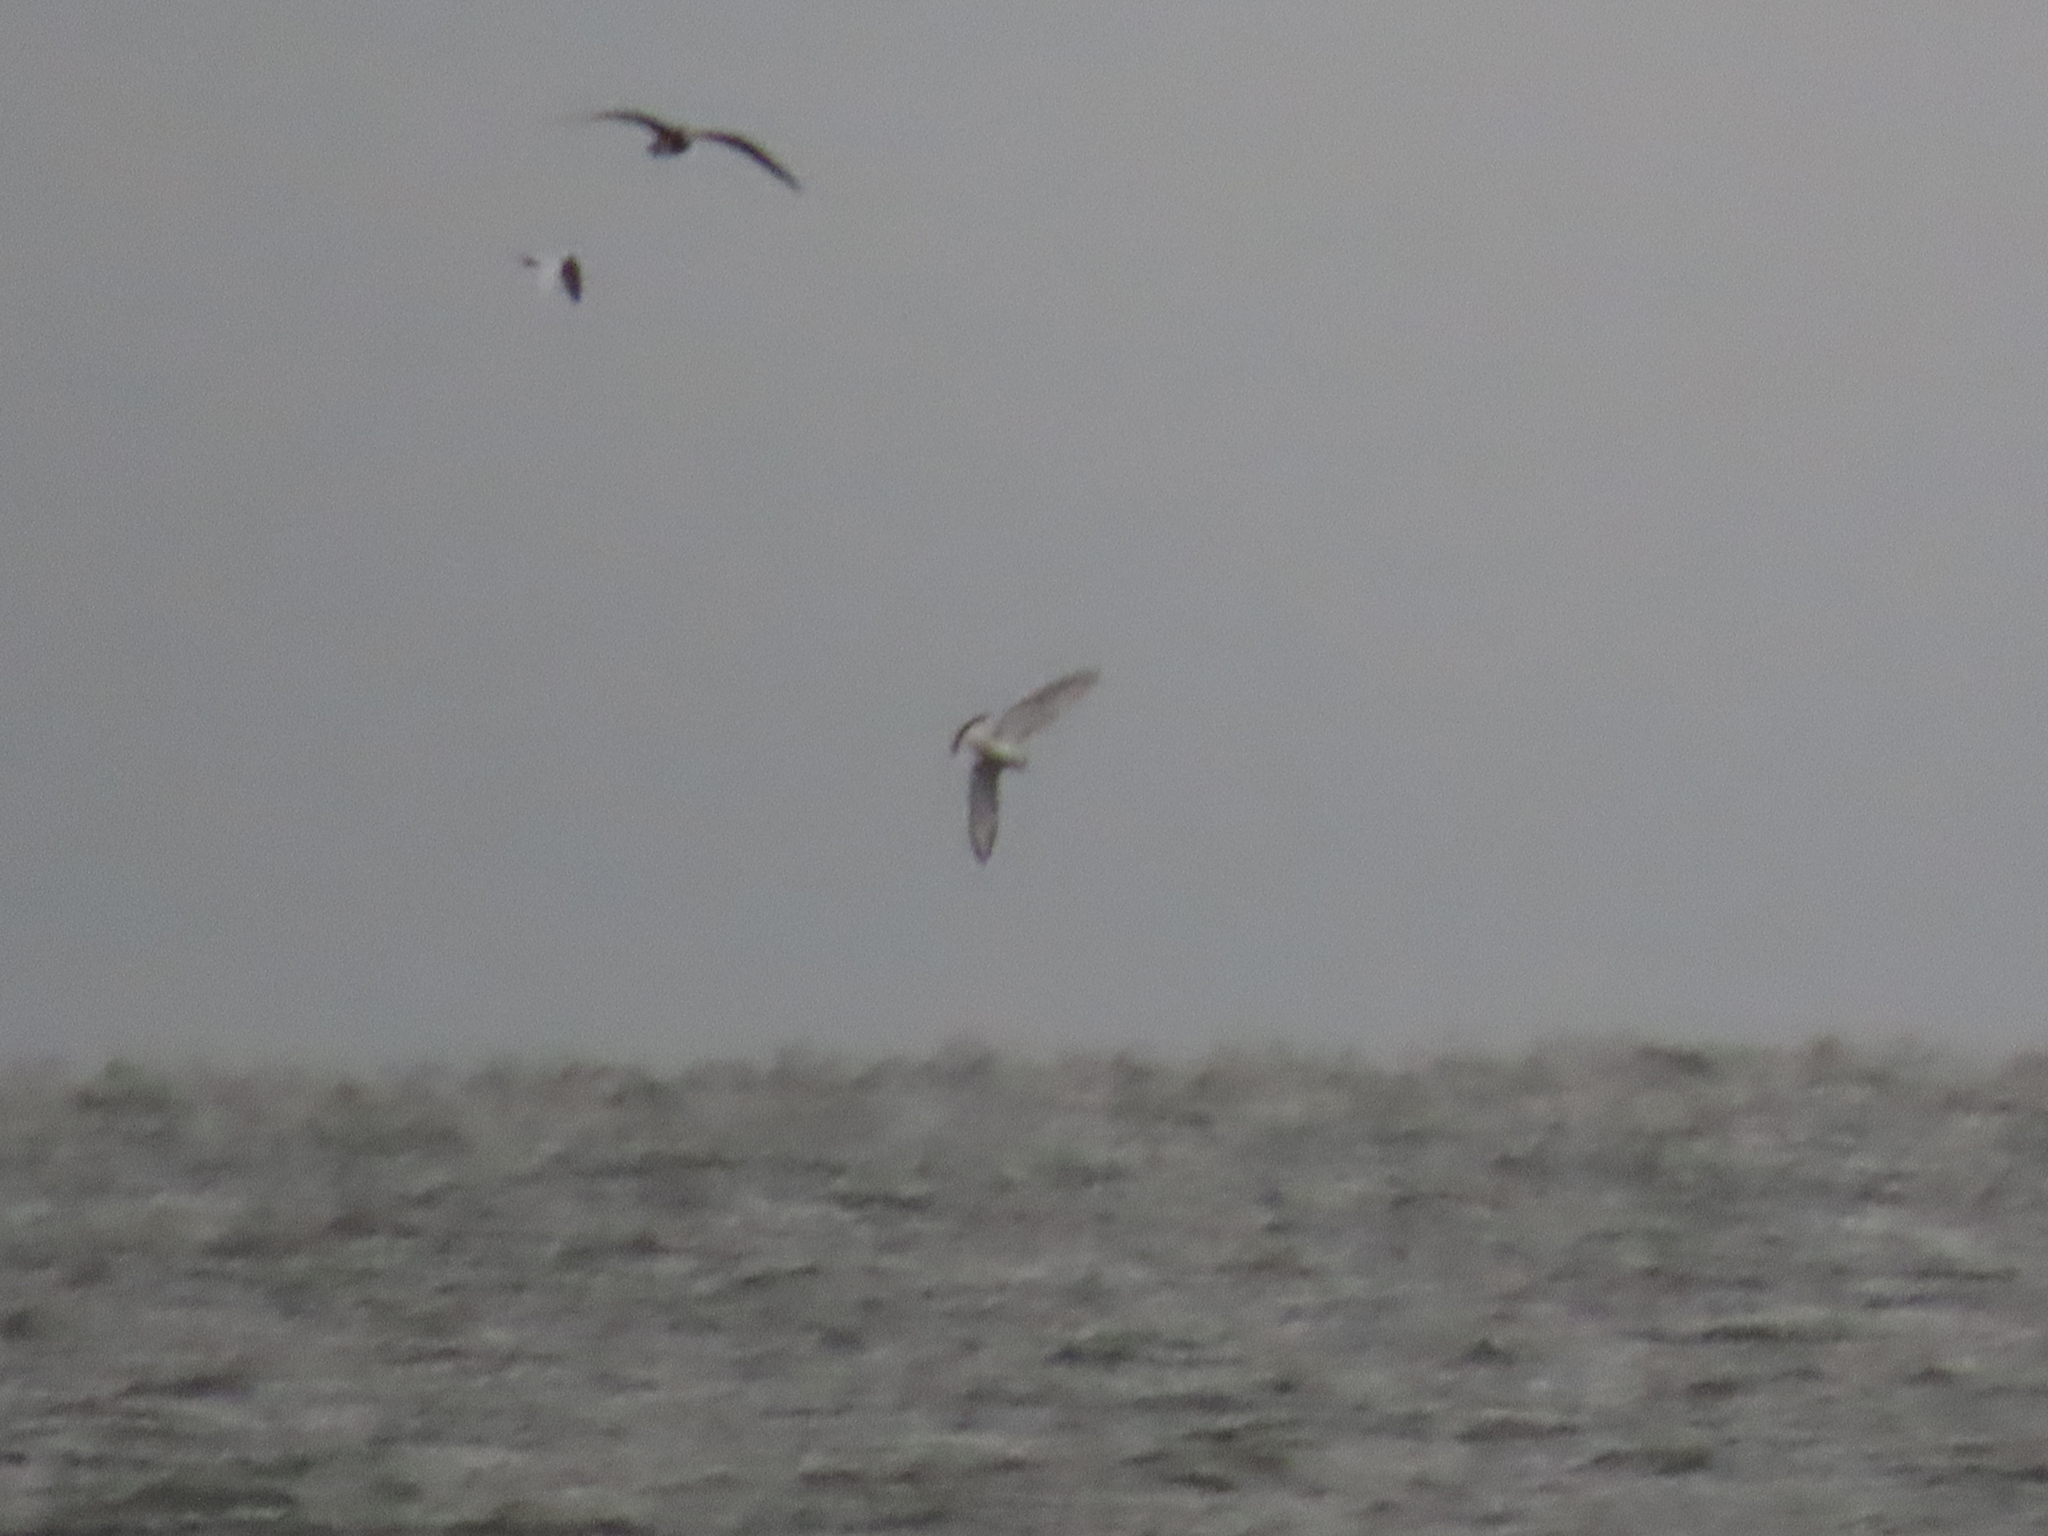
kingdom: Animalia
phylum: Chordata
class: Aves
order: Charadriiformes
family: Laridae
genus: Chroicocephalus
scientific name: Chroicocephalus philadelphia
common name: Bonaparte's gull
